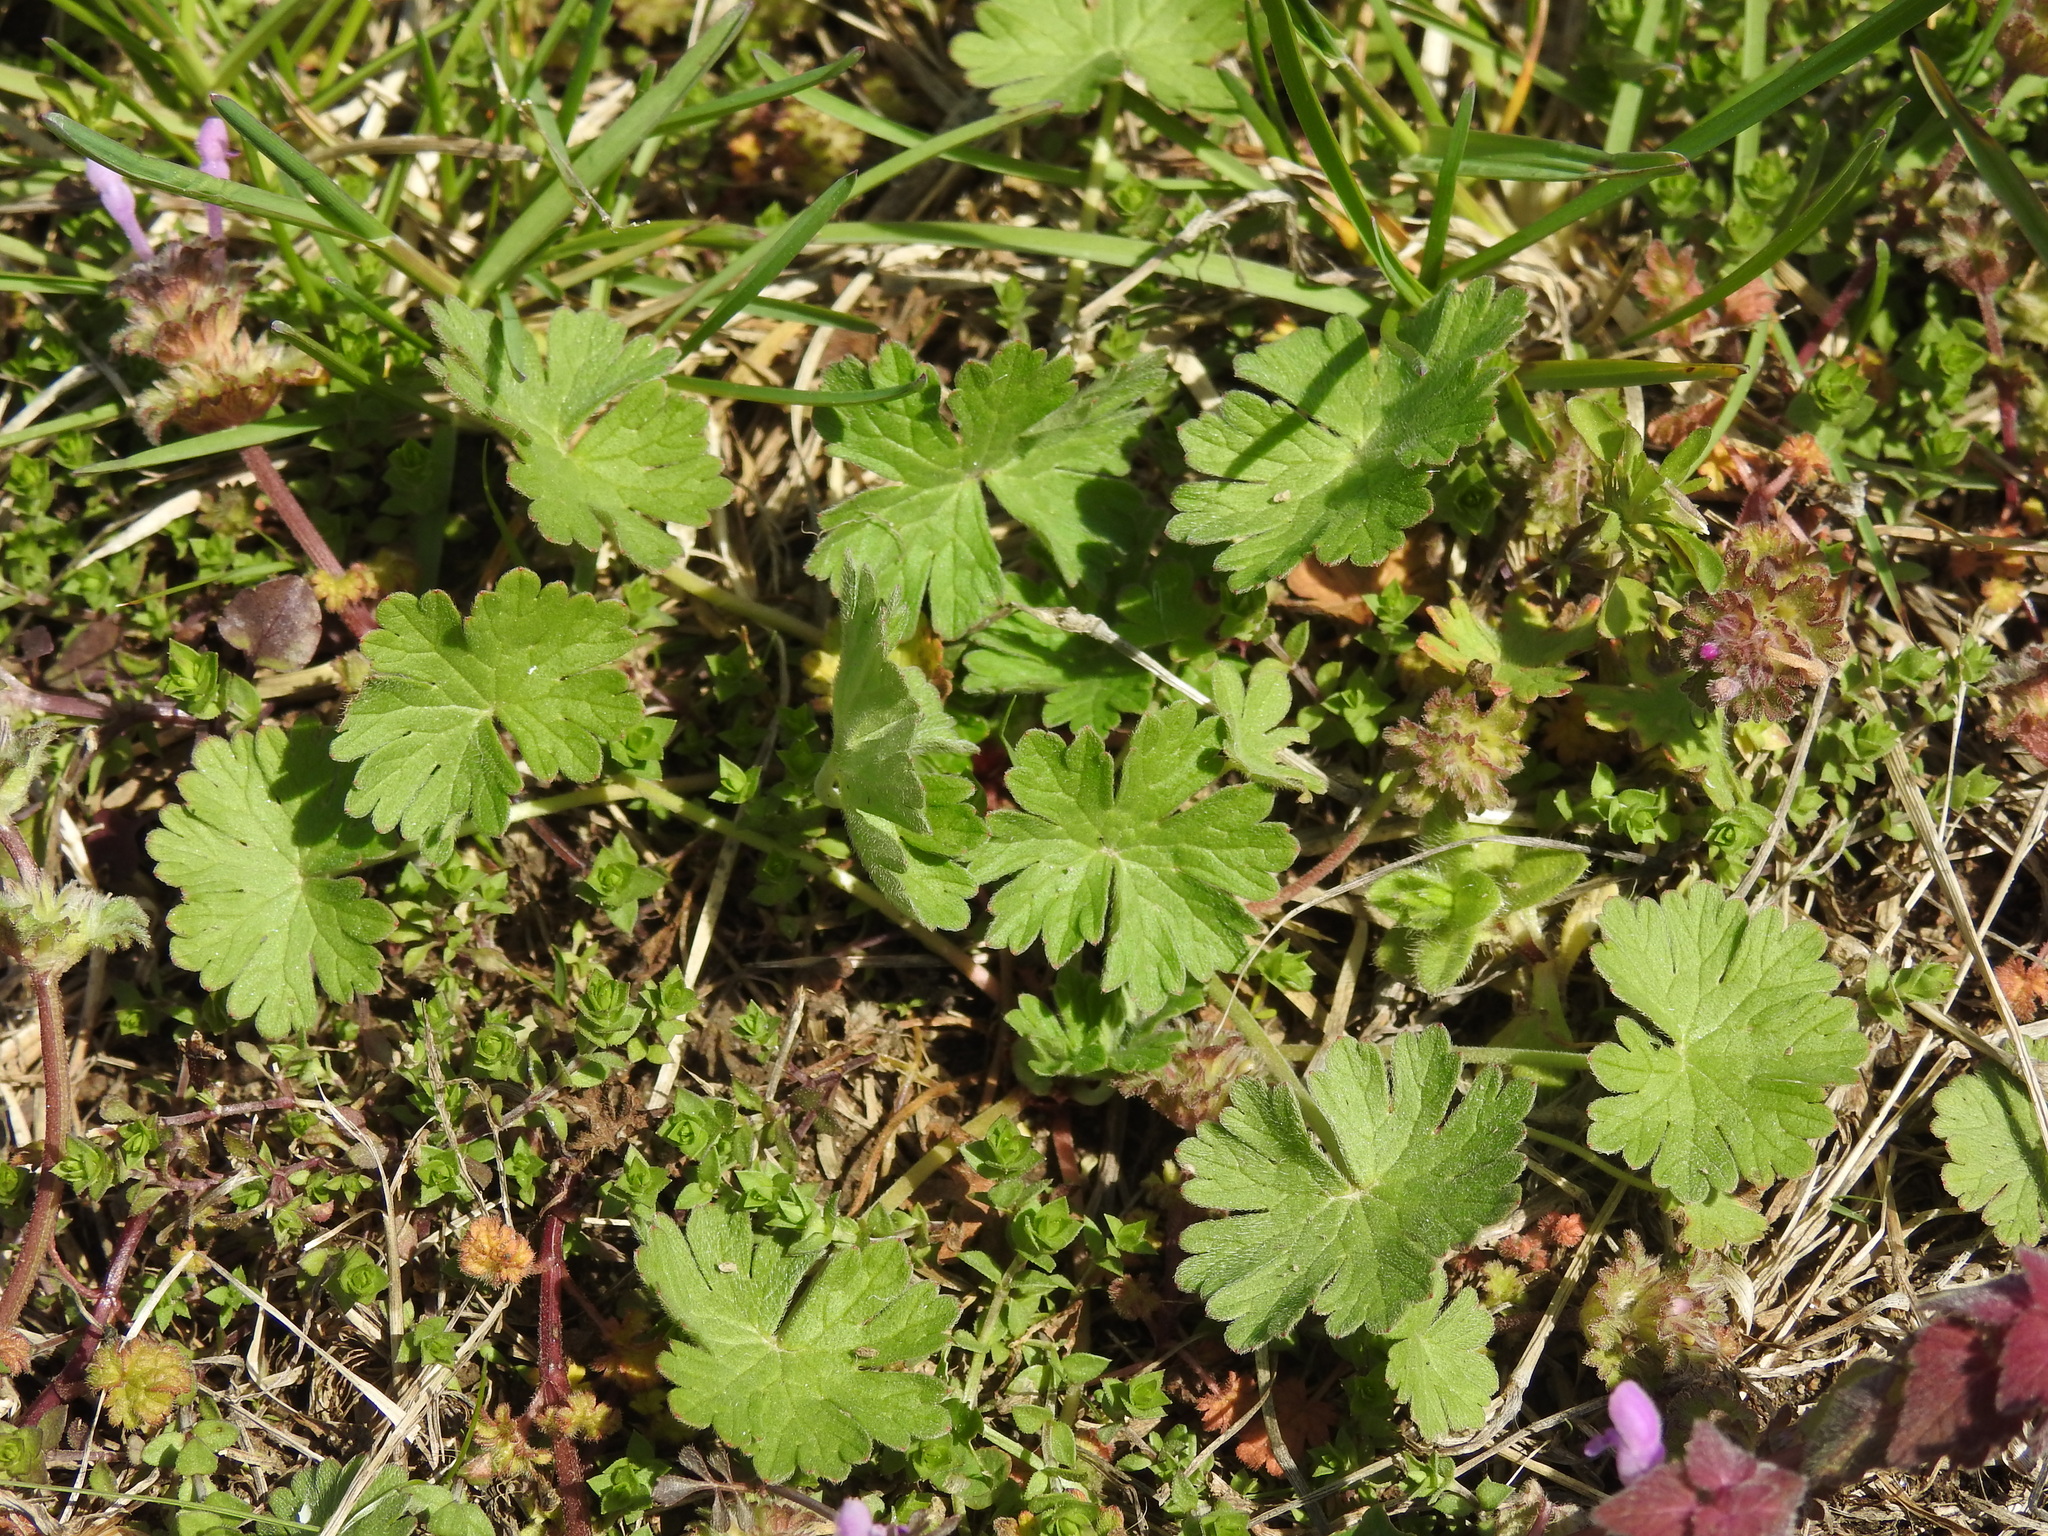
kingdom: Plantae
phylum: Tracheophyta
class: Magnoliopsida
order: Geraniales
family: Geraniaceae
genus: Geranium
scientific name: Geranium pusillum
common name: Small geranium
